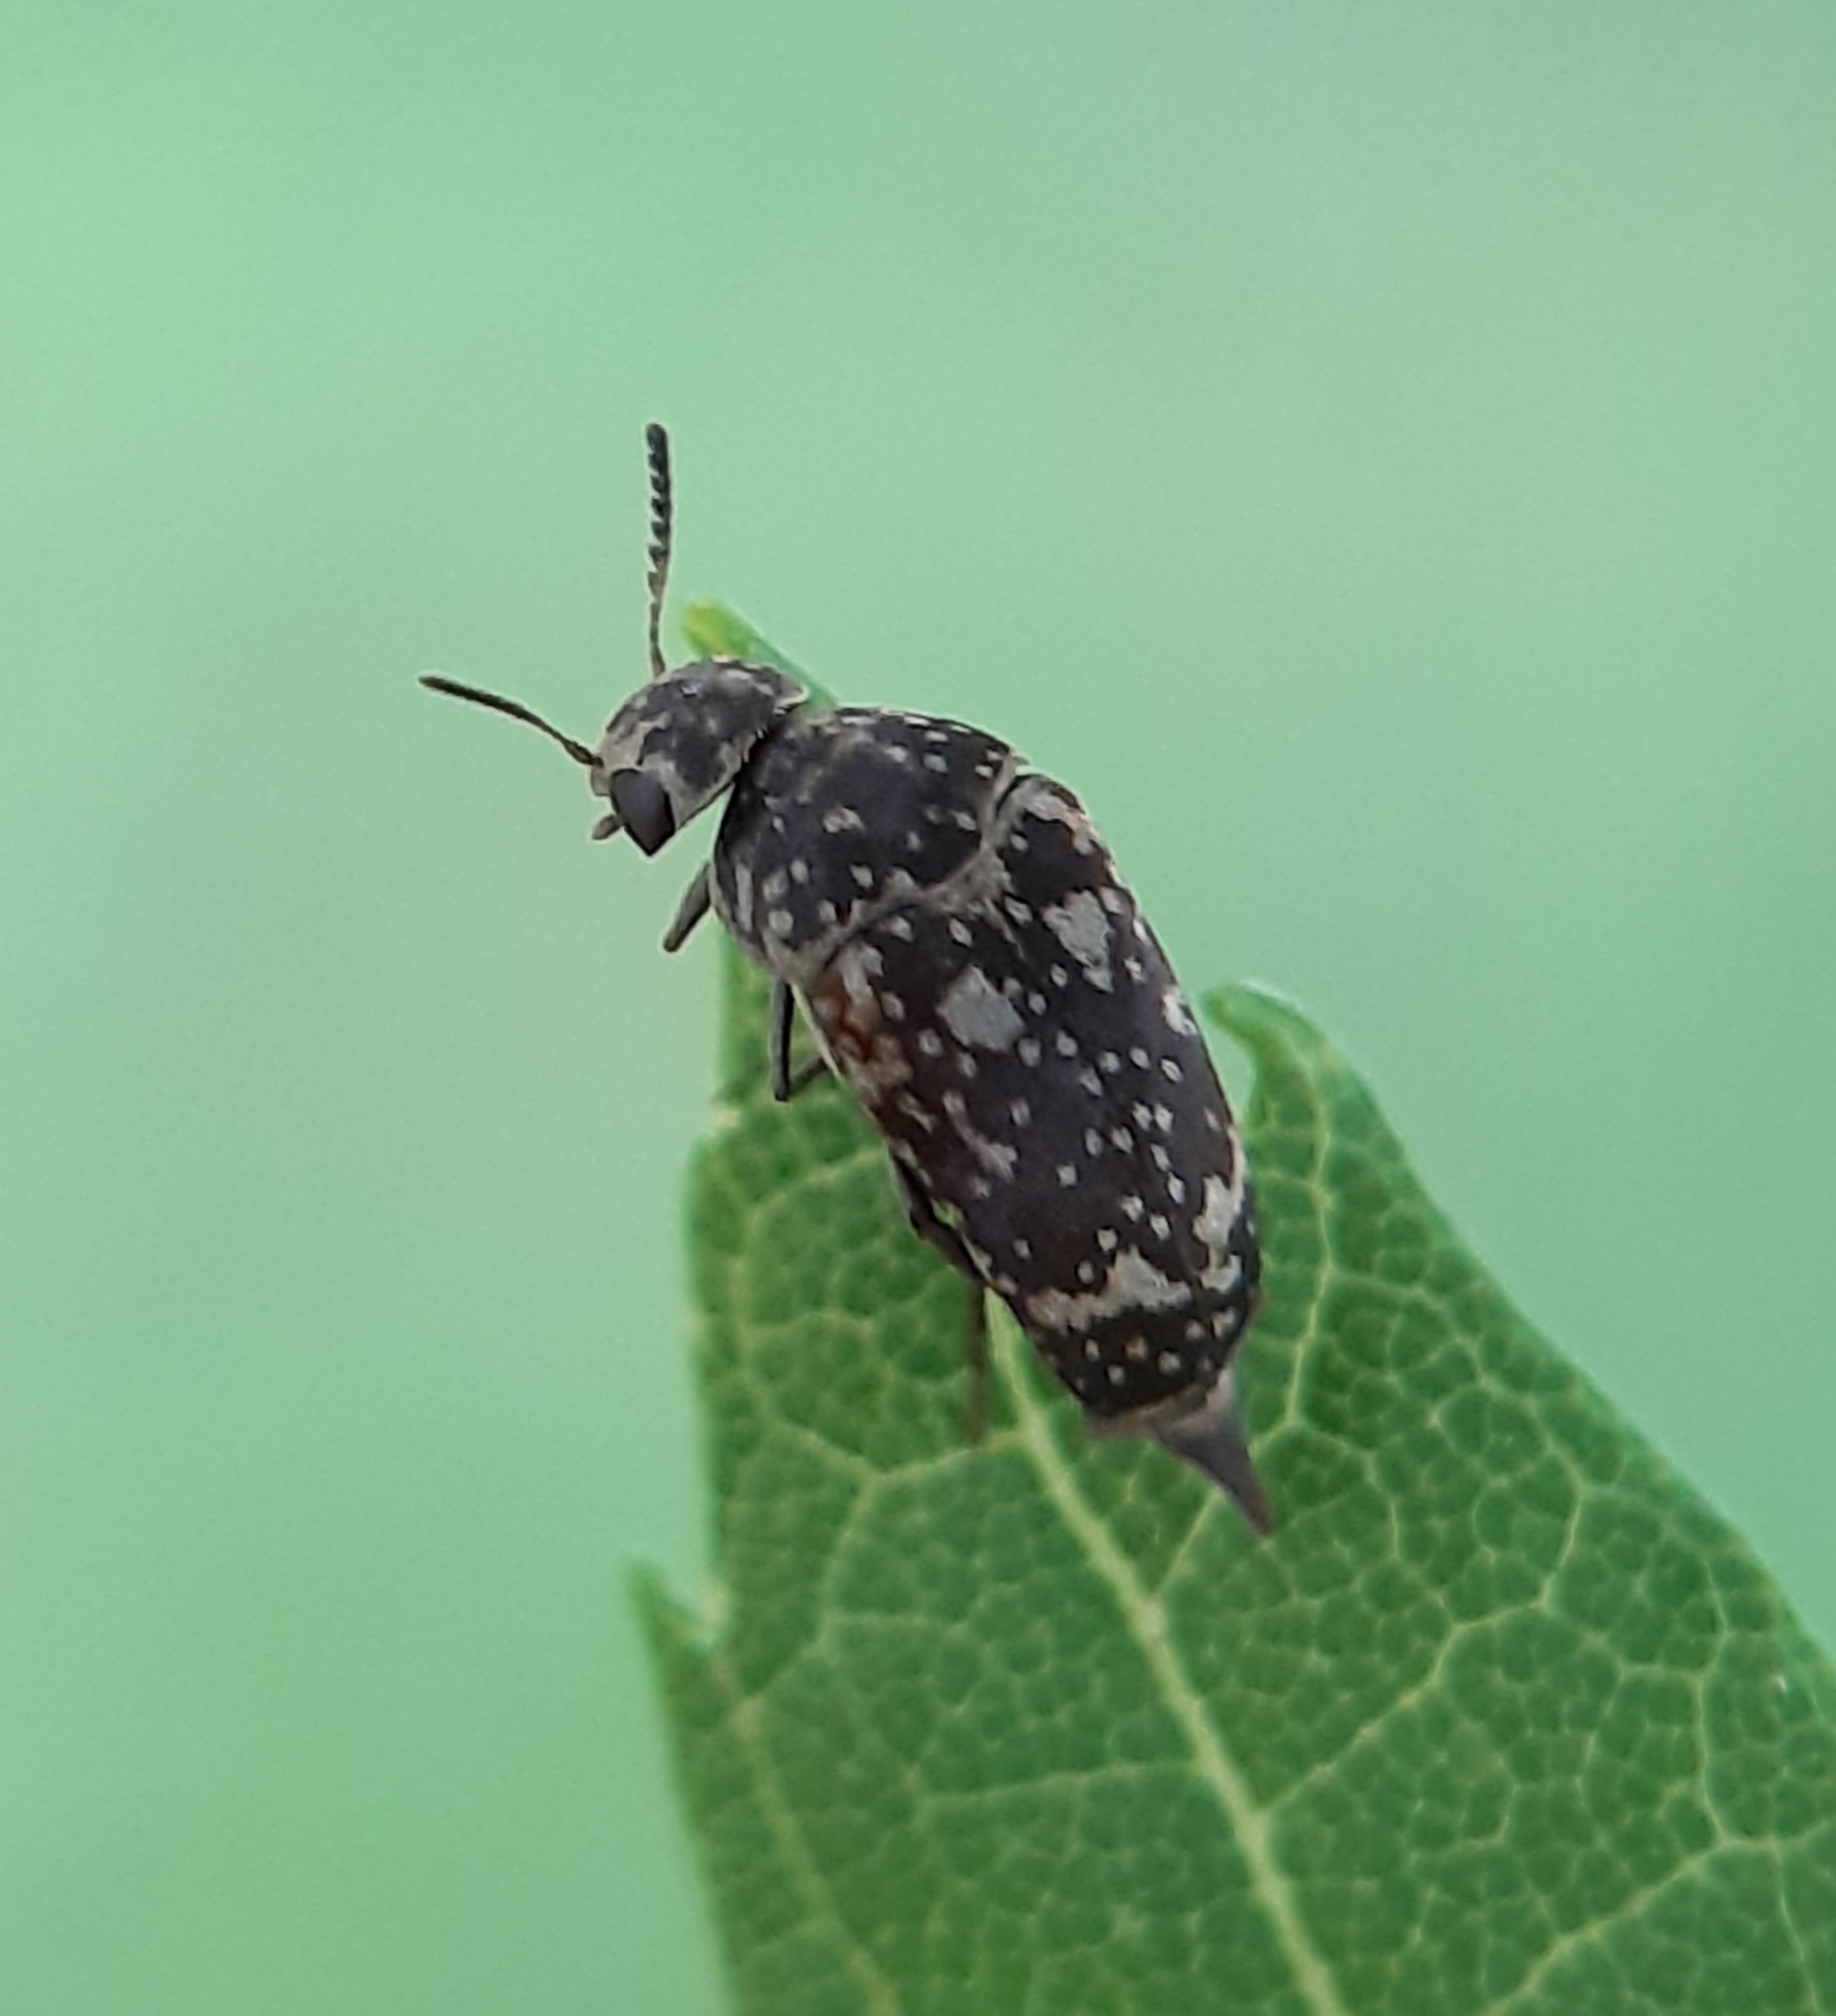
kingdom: Animalia
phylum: Arthropoda
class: Insecta
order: Coleoptera
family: Mordellidae
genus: Mordellaria
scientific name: Mordellaria serval
